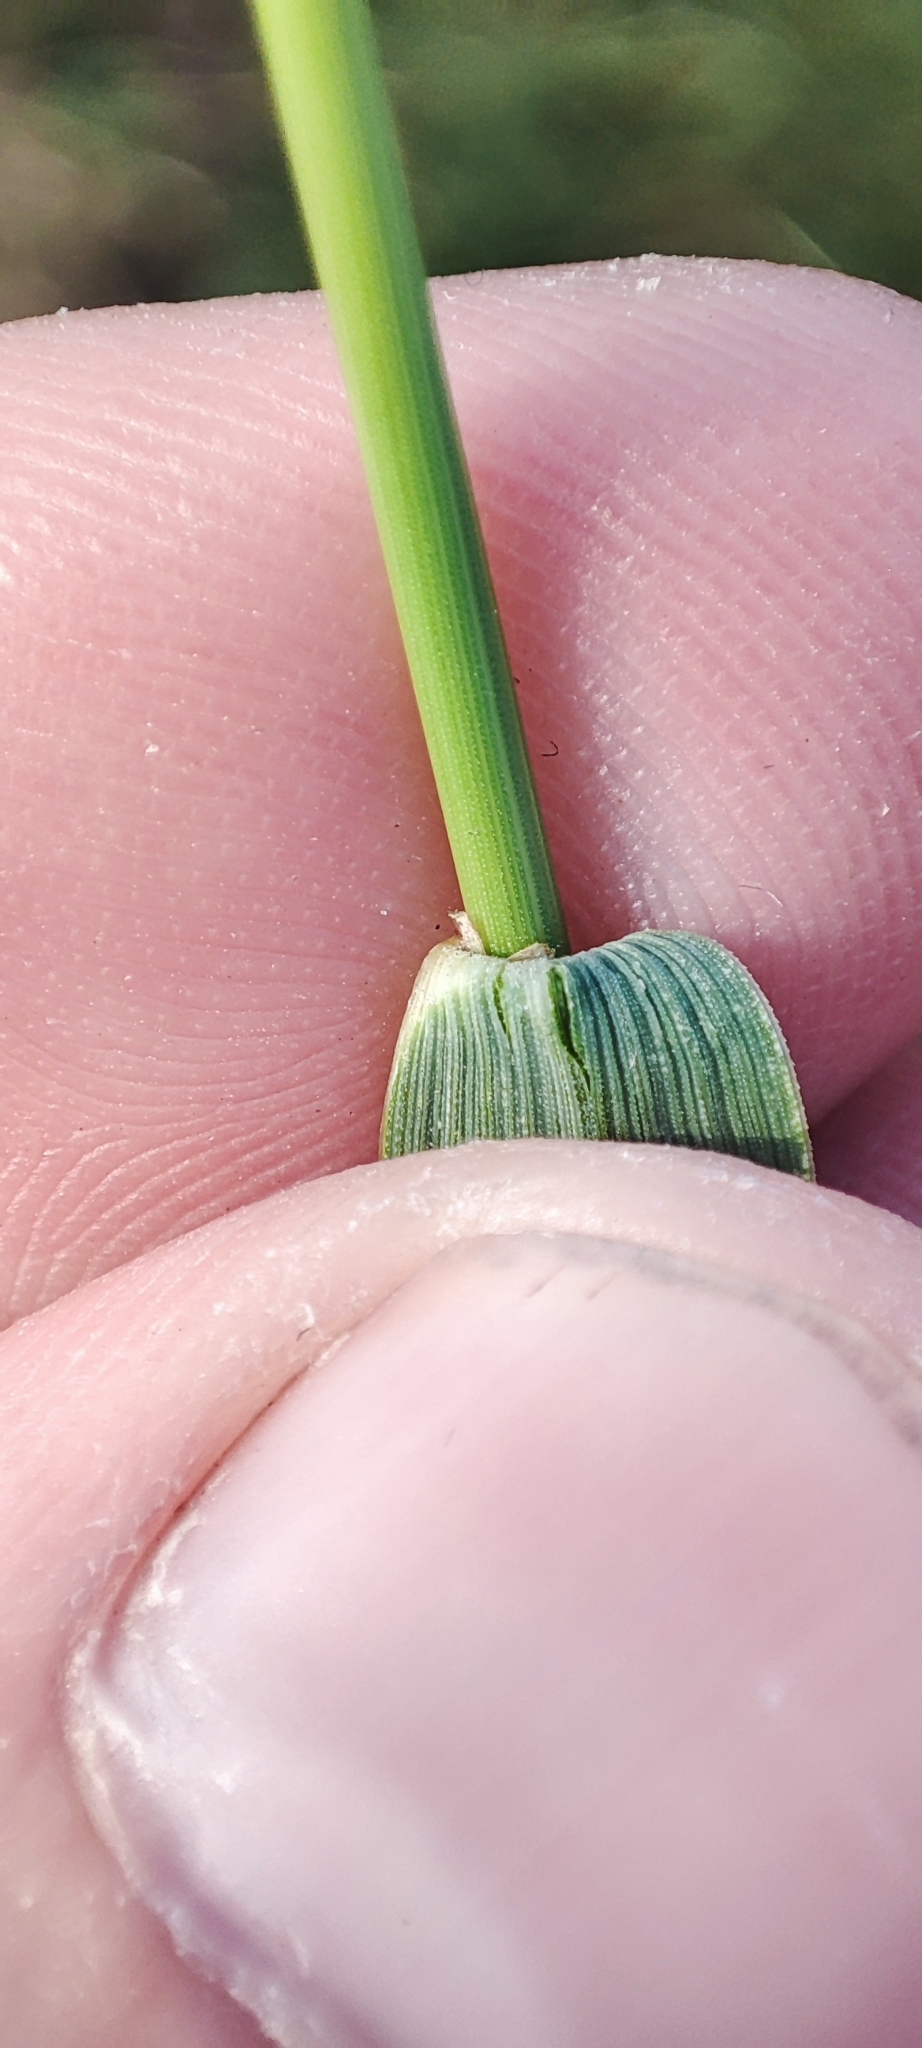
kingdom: Plantae
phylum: Tracheophyta
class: Liliopsida
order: Poales
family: Poaceae
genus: Elymus
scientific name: Elymus repens
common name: Quackgrass
